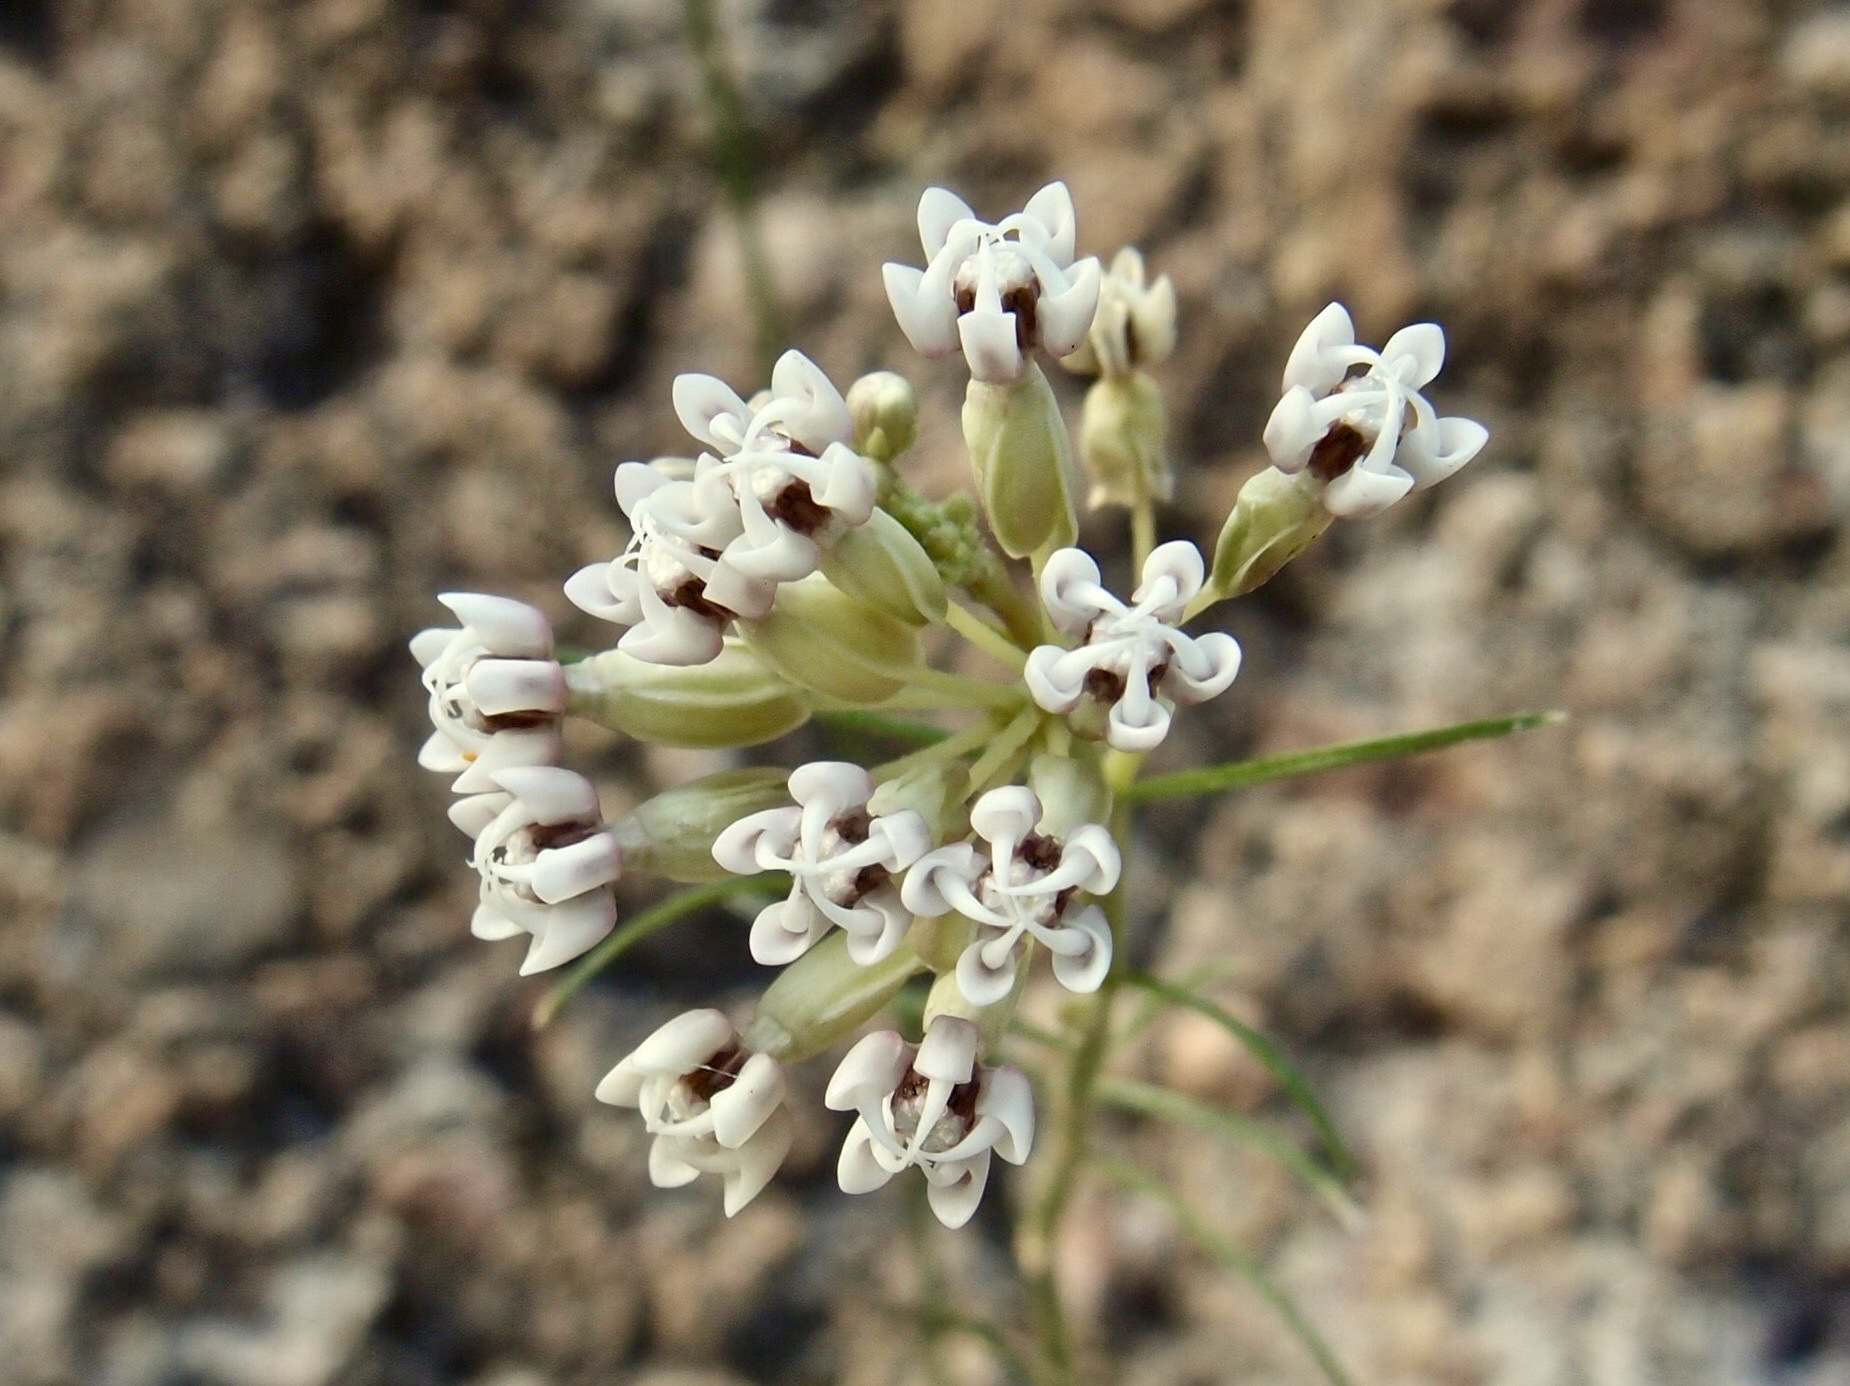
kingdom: Plantae
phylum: Tracheophyta
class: Magnoliopsida
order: Gentianales
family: Apocynaceae
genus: Asclepias
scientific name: Asclepias leptopus
